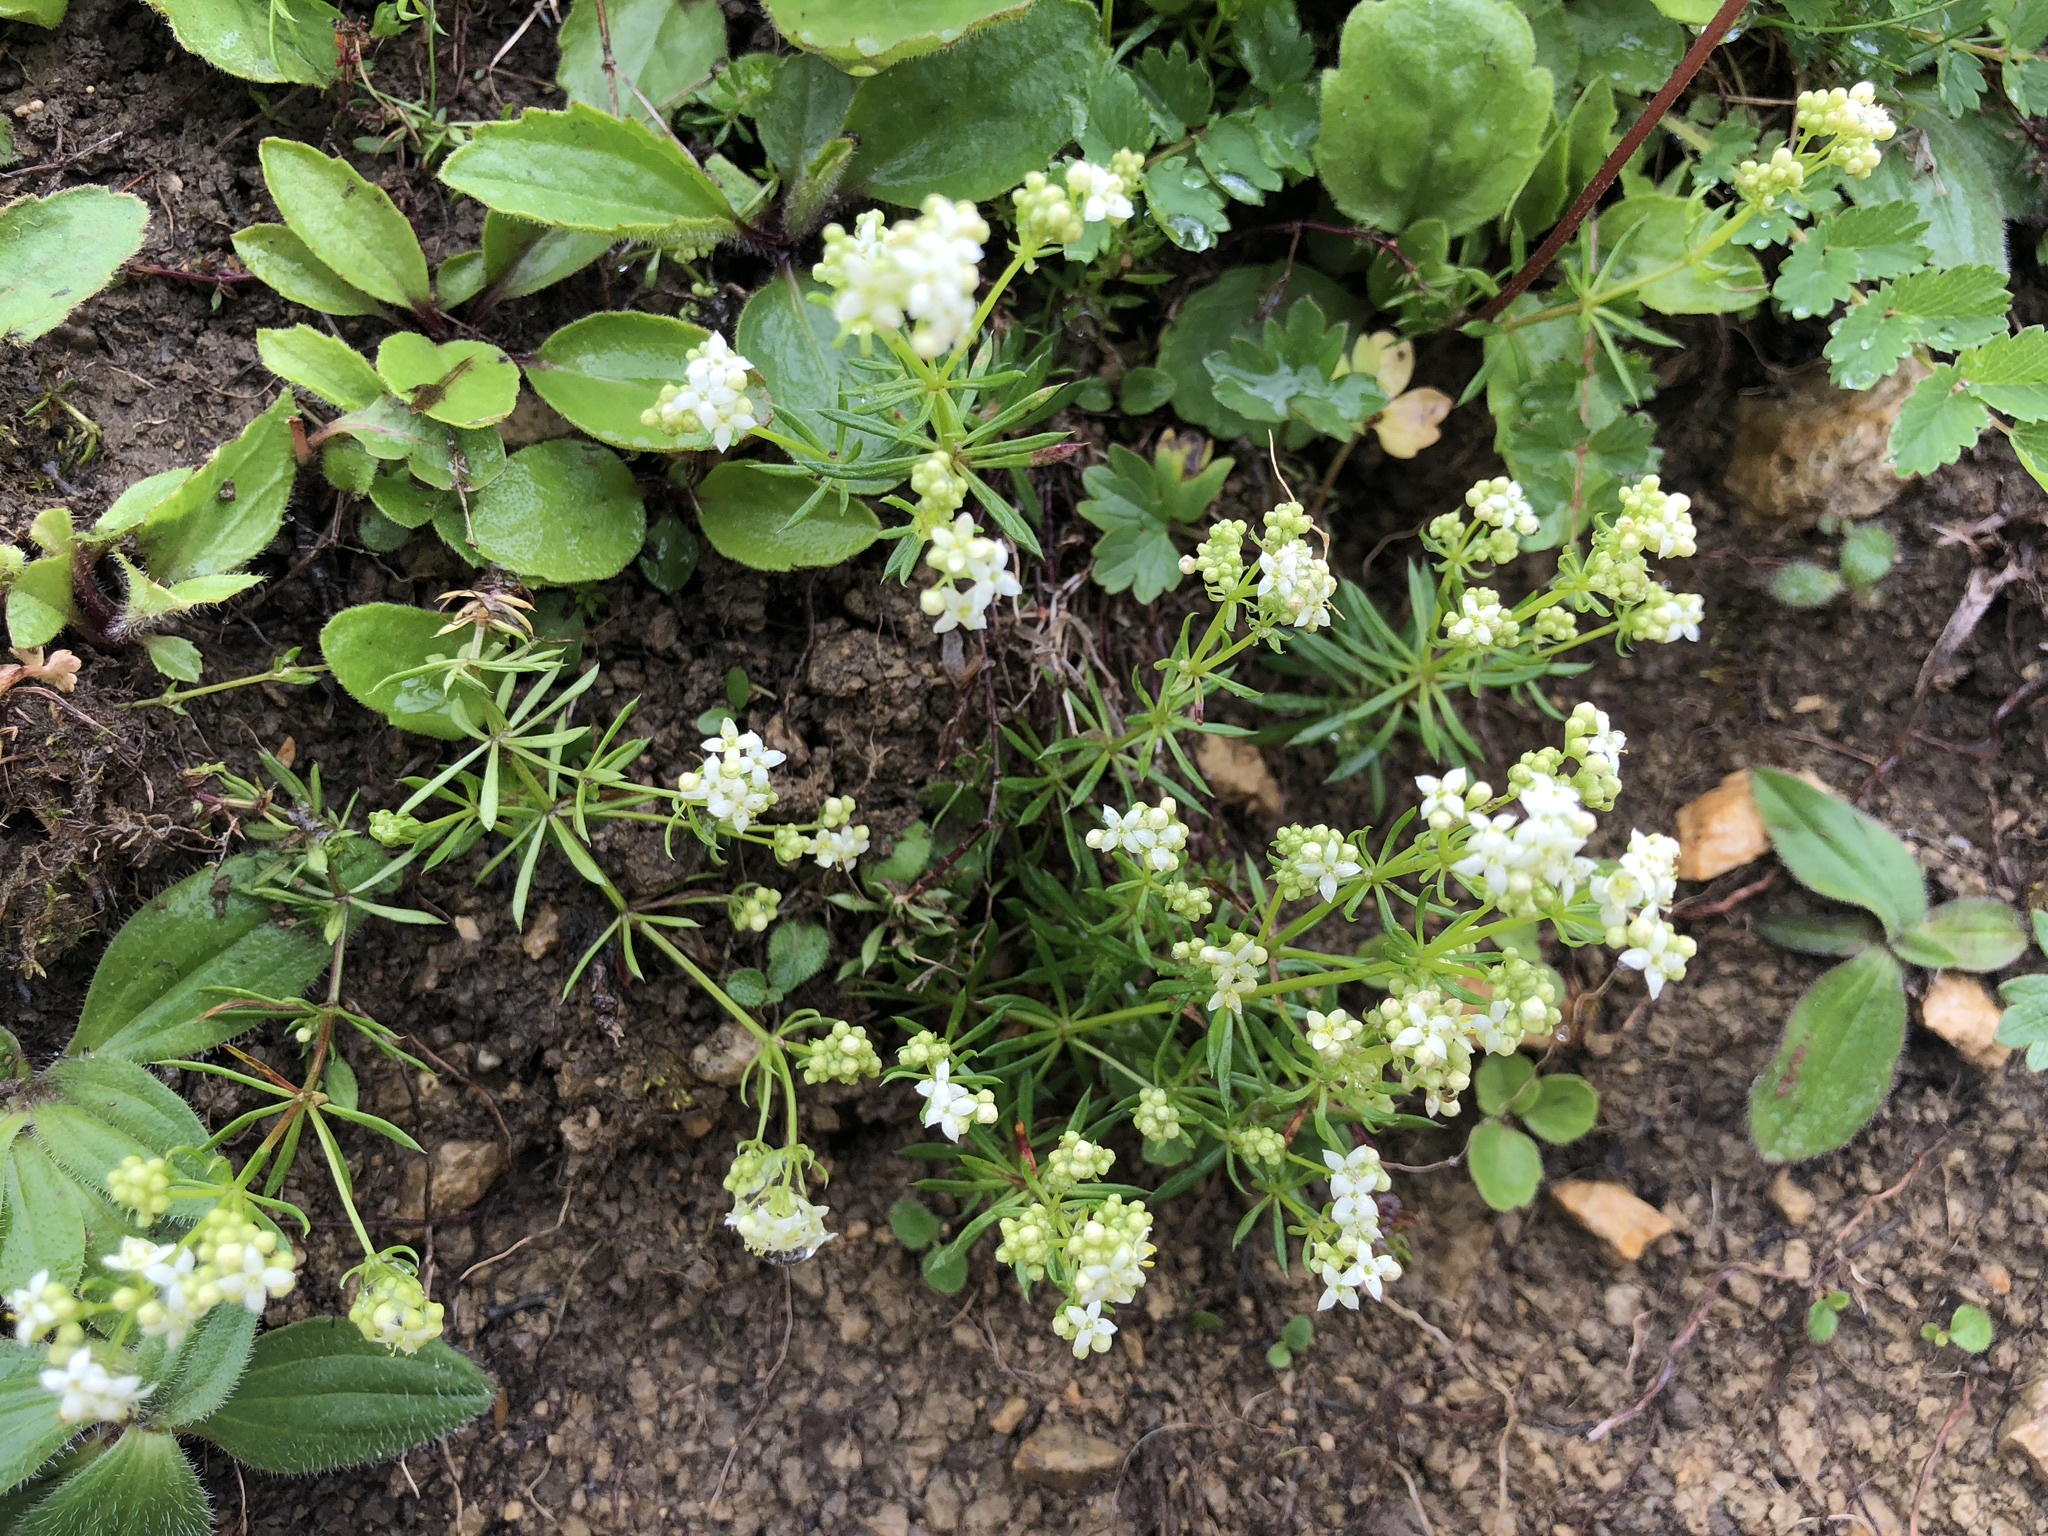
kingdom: Plantae
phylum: Tracheophyta
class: Magnoliopsida
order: Gentianales
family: Rubiaceae
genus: Galium
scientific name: Galium anisophyllon
